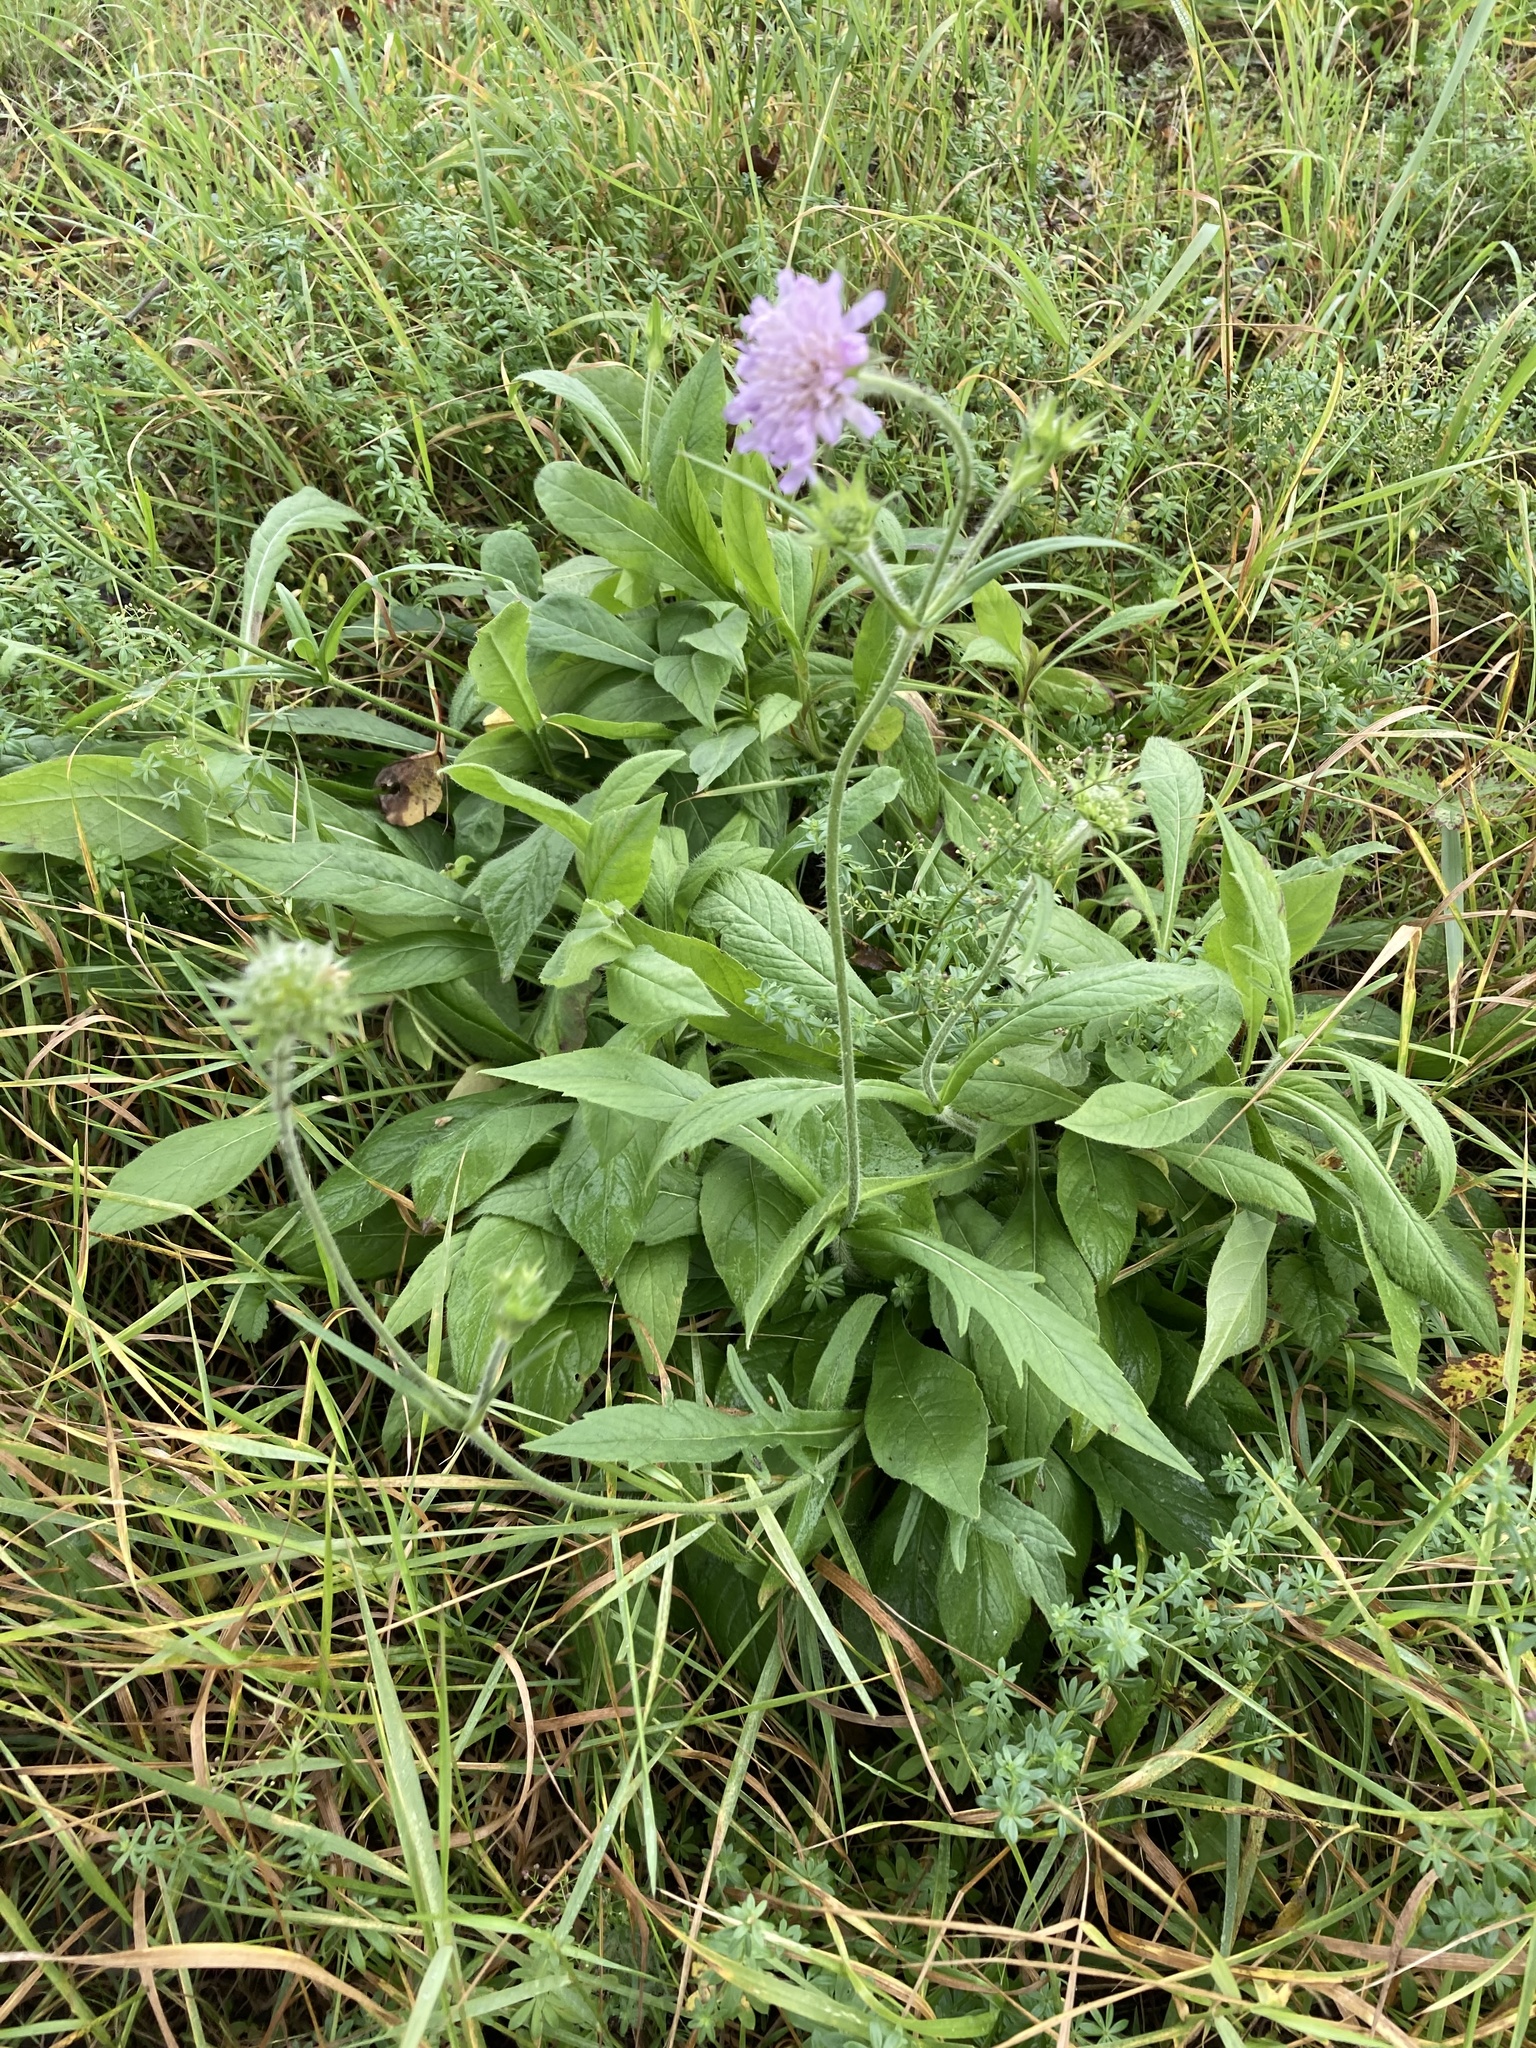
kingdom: Plantae
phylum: Tracheophyta
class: Magnoliopsida
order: Dipsacales
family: Caprifoliaceae
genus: Knautia
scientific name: Knautia arvensis
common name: Field scabiosa
